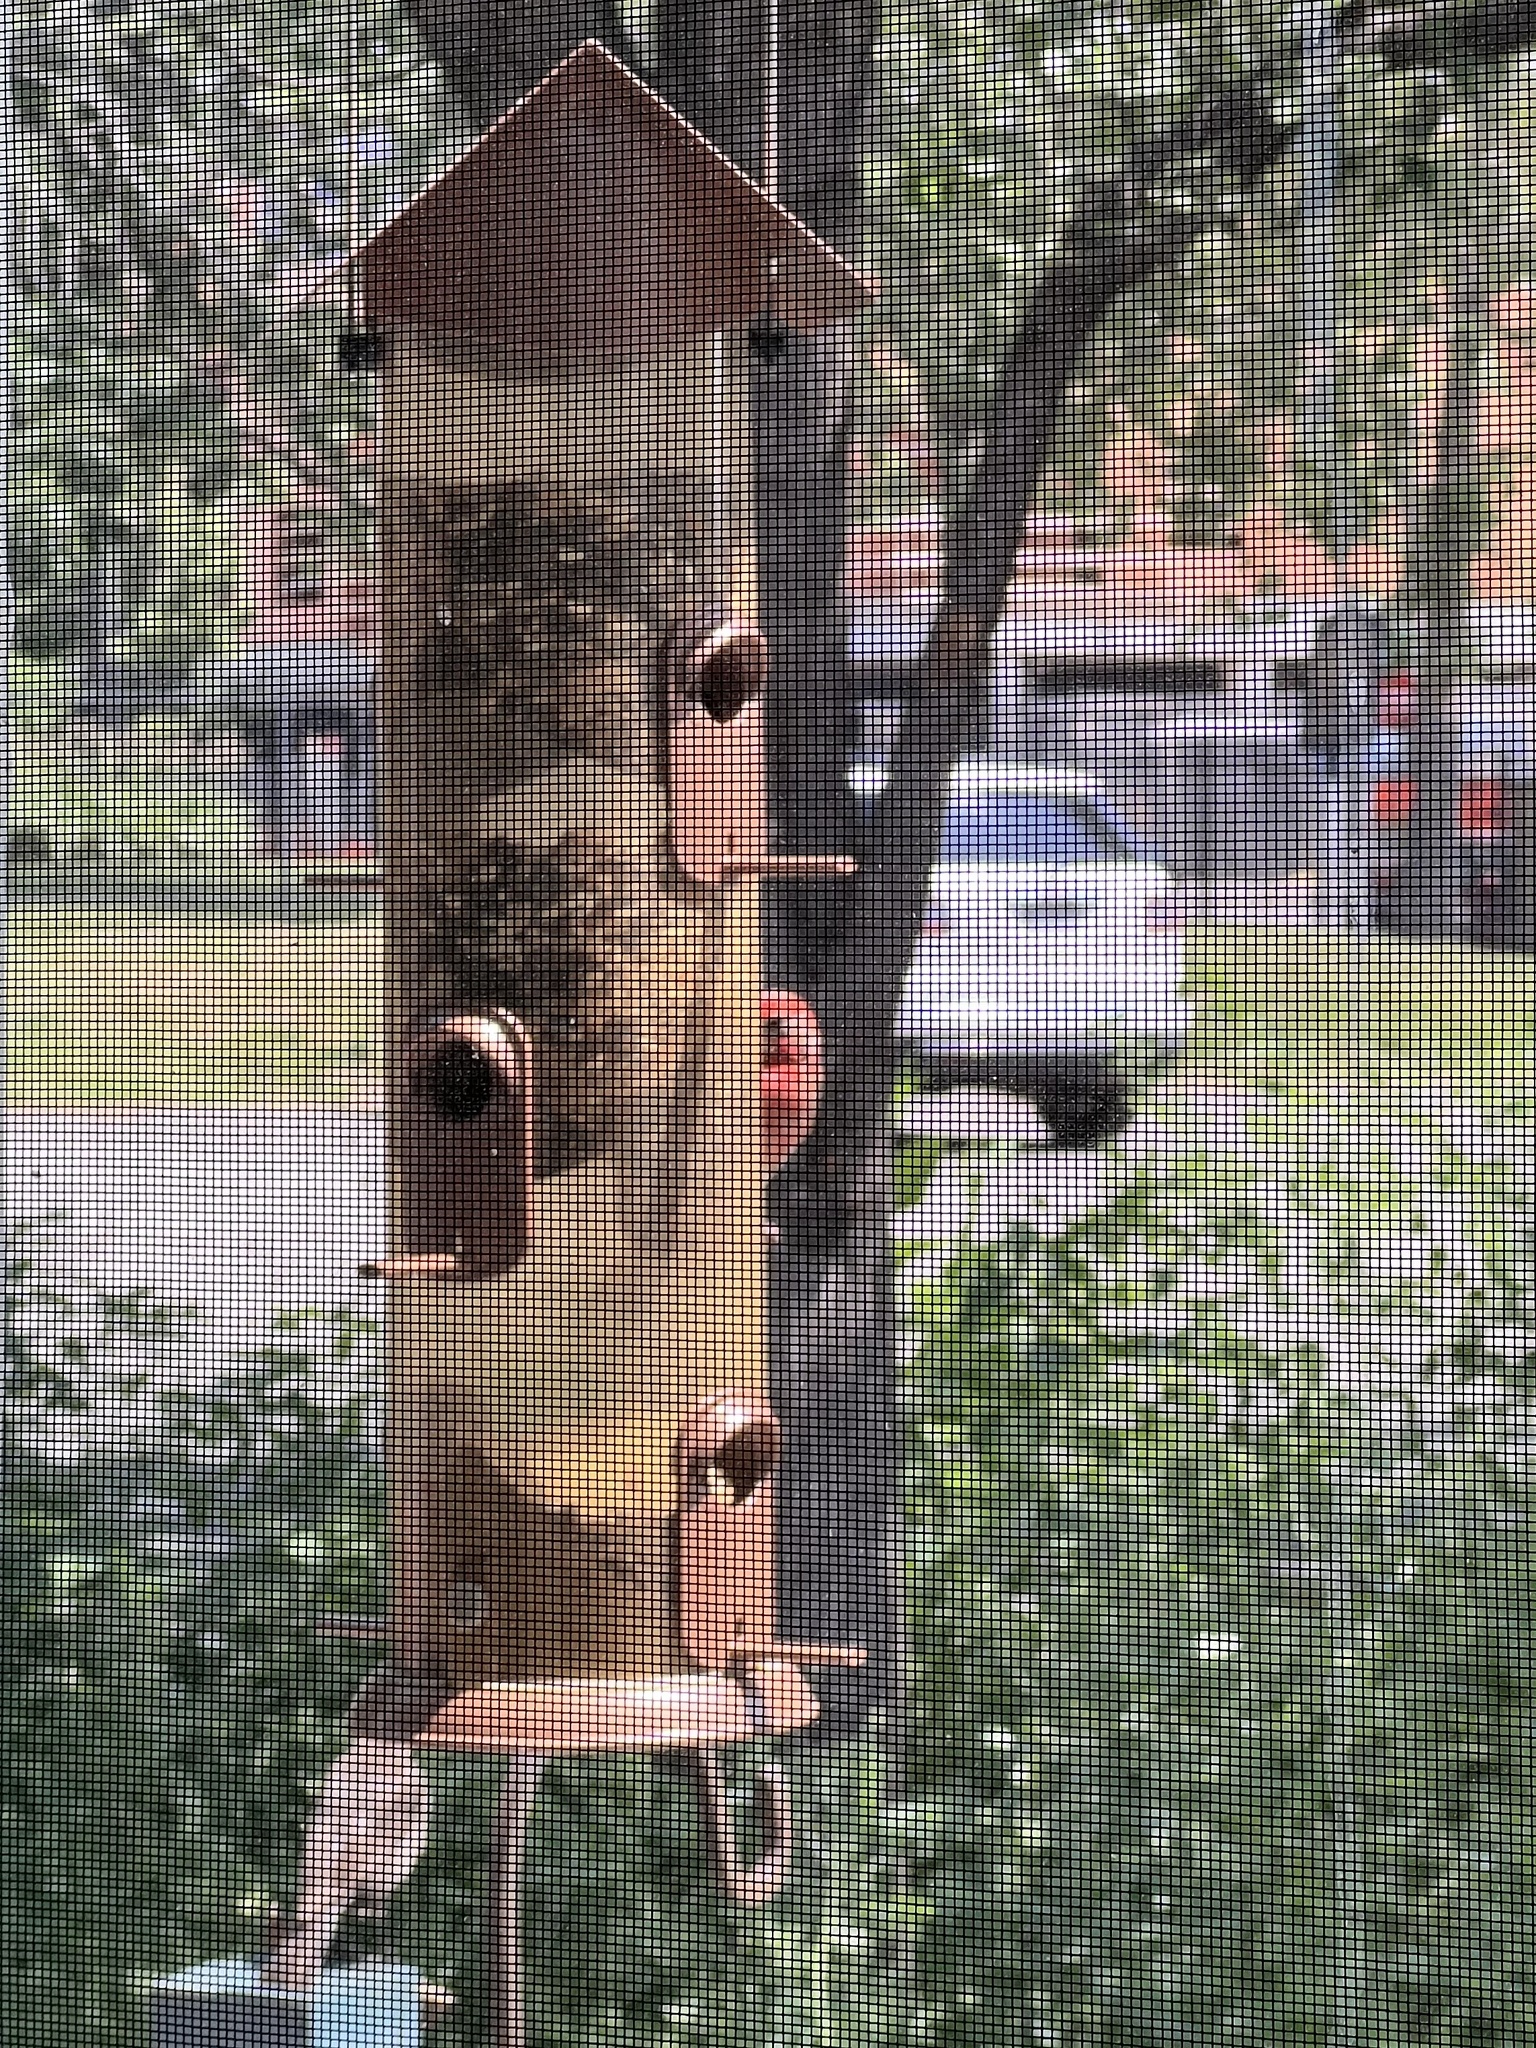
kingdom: Animalia
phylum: Chordata
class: Aves
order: Passeriformes
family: Fringillidae
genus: Haemorhous
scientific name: Haemorhous mexicanus
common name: House finch
